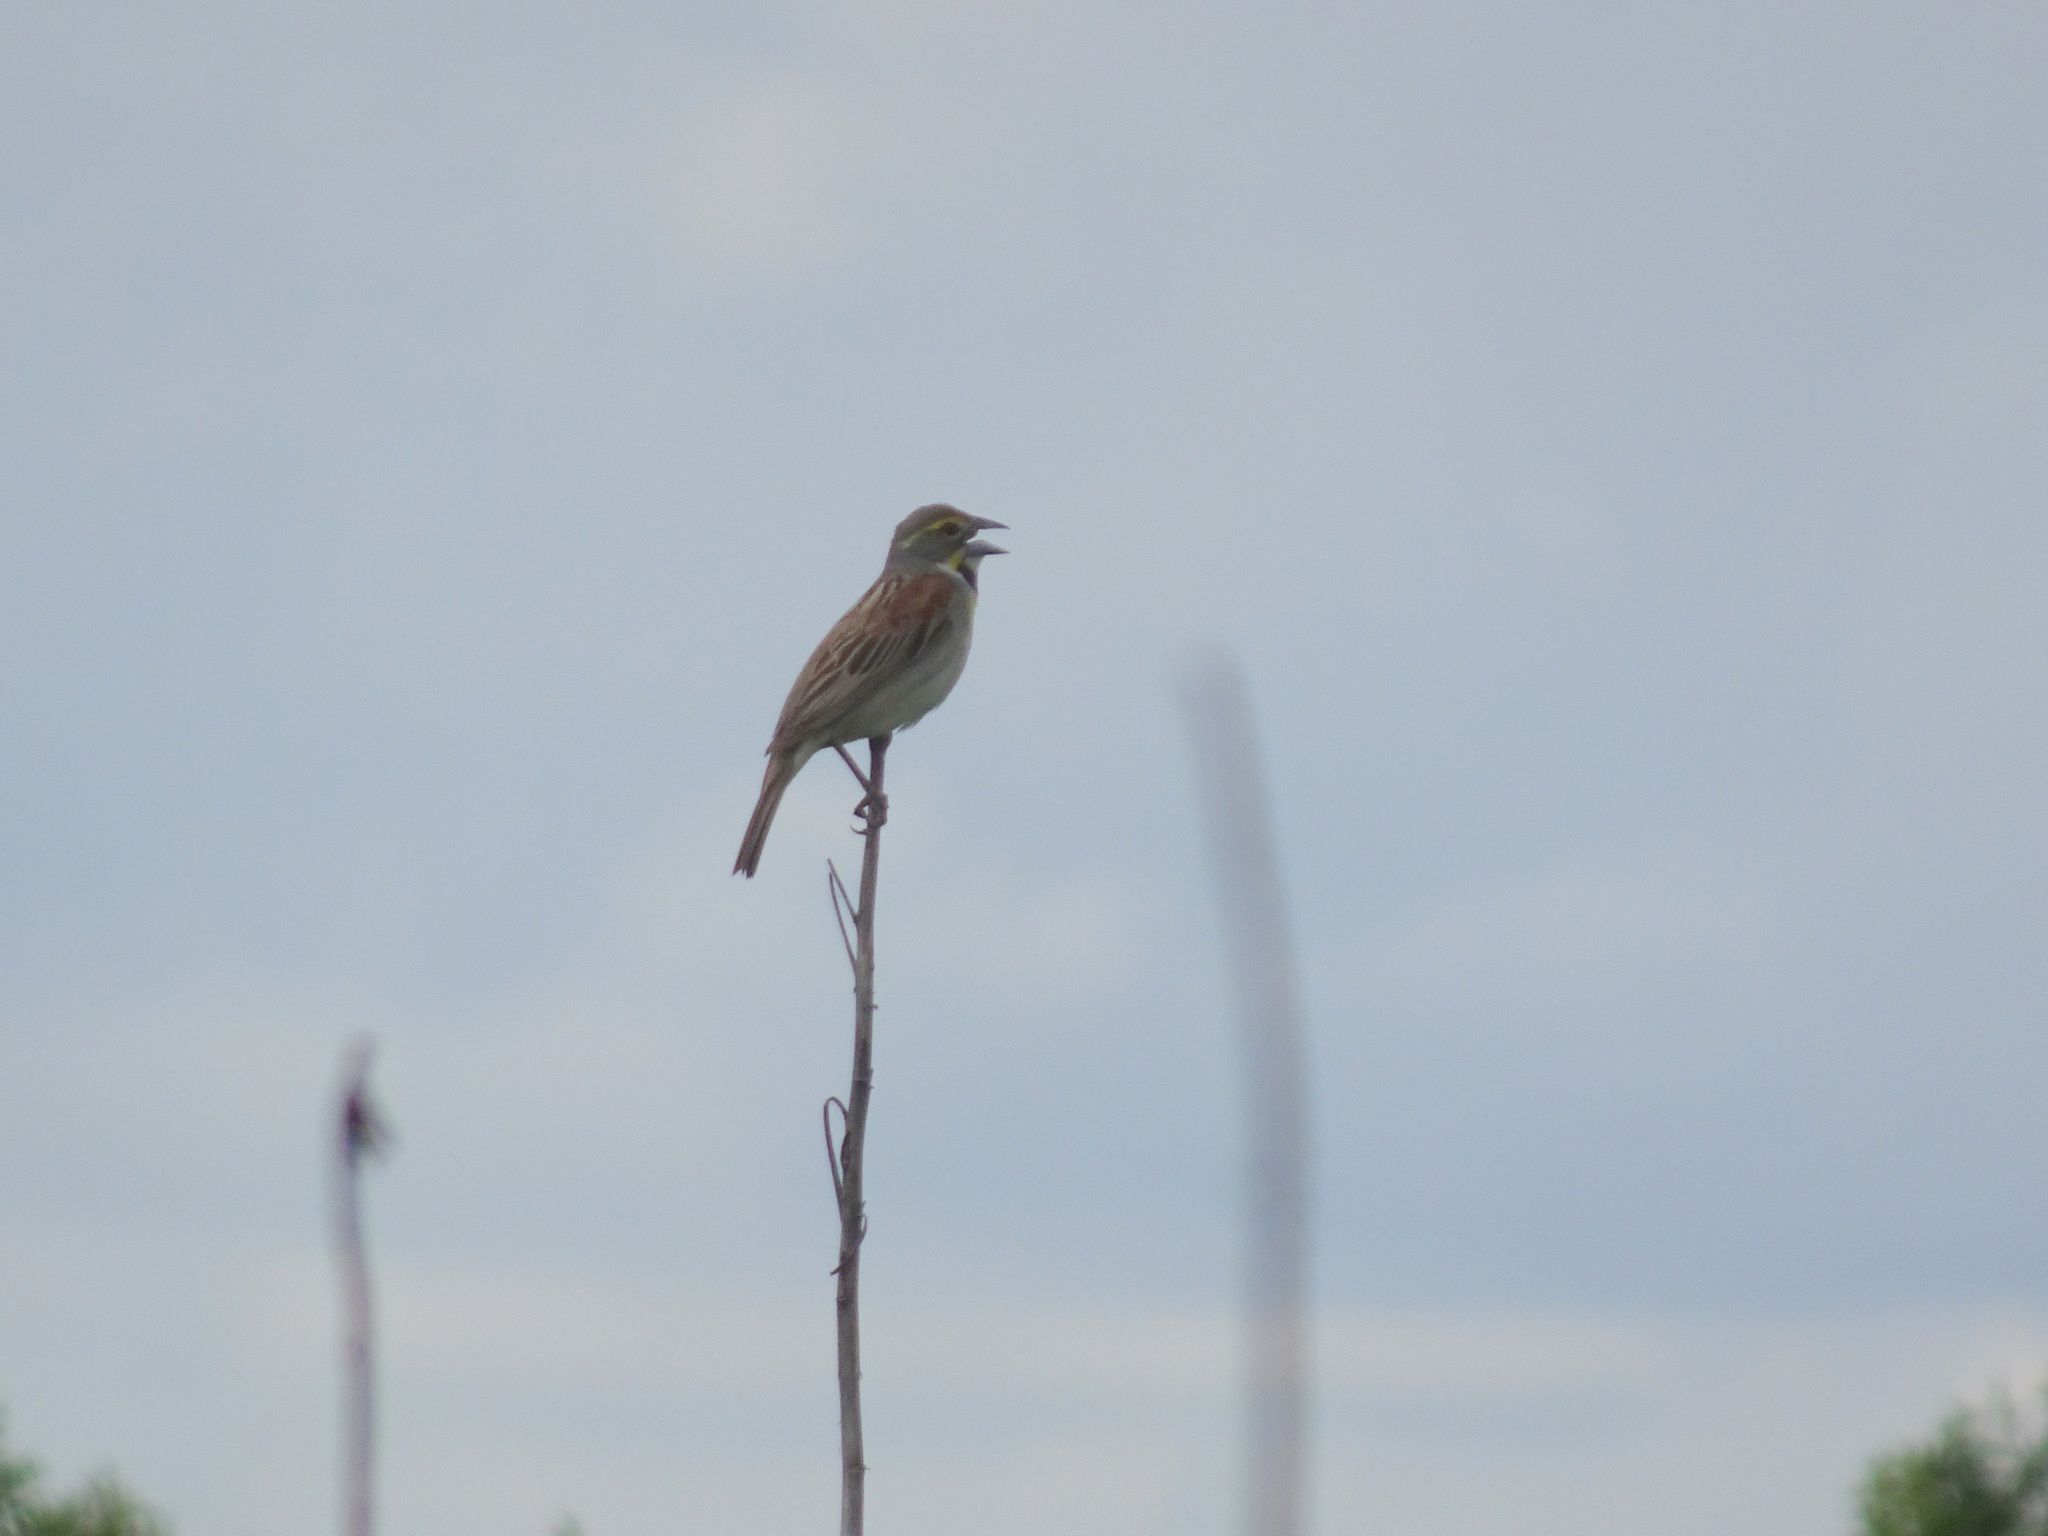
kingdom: Animalia
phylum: Chordata
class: Aves
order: Passeriformes
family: Cardinalidae
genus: Spiza
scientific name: Spiza americana
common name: Dickcissel
